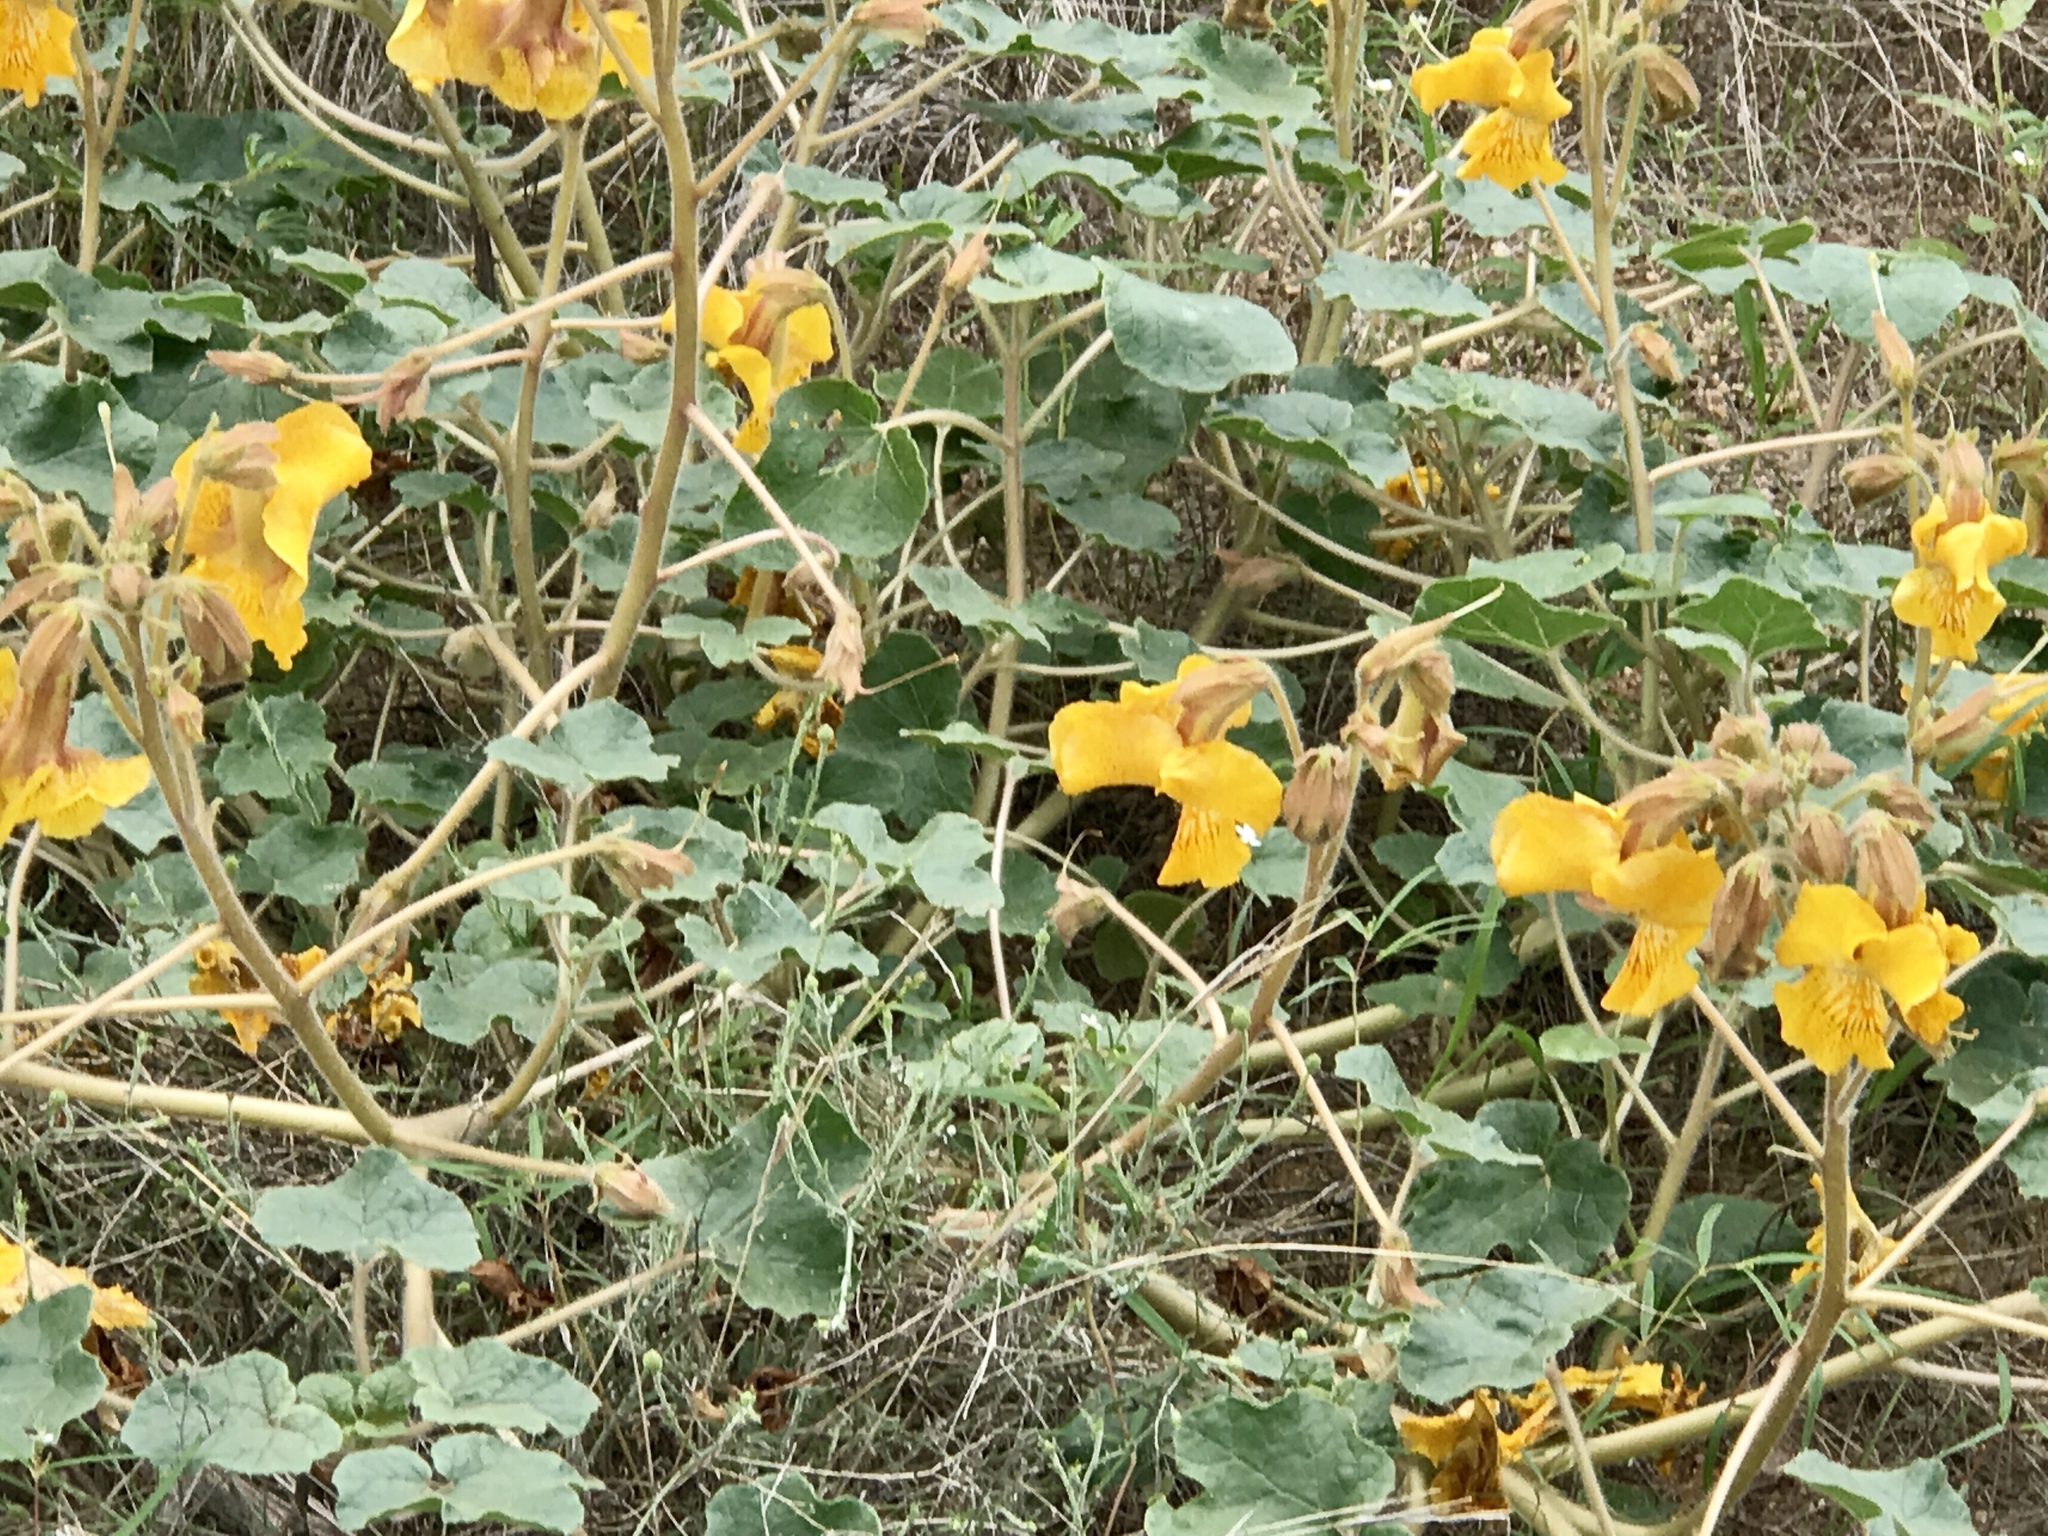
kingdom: Plantae
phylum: Tracheophyta
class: Magnoliopsida
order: Lamiales
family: Martyniaceae
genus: Proboscidea
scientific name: Proboscidea althaeifolia
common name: Desert unicorn-plant
